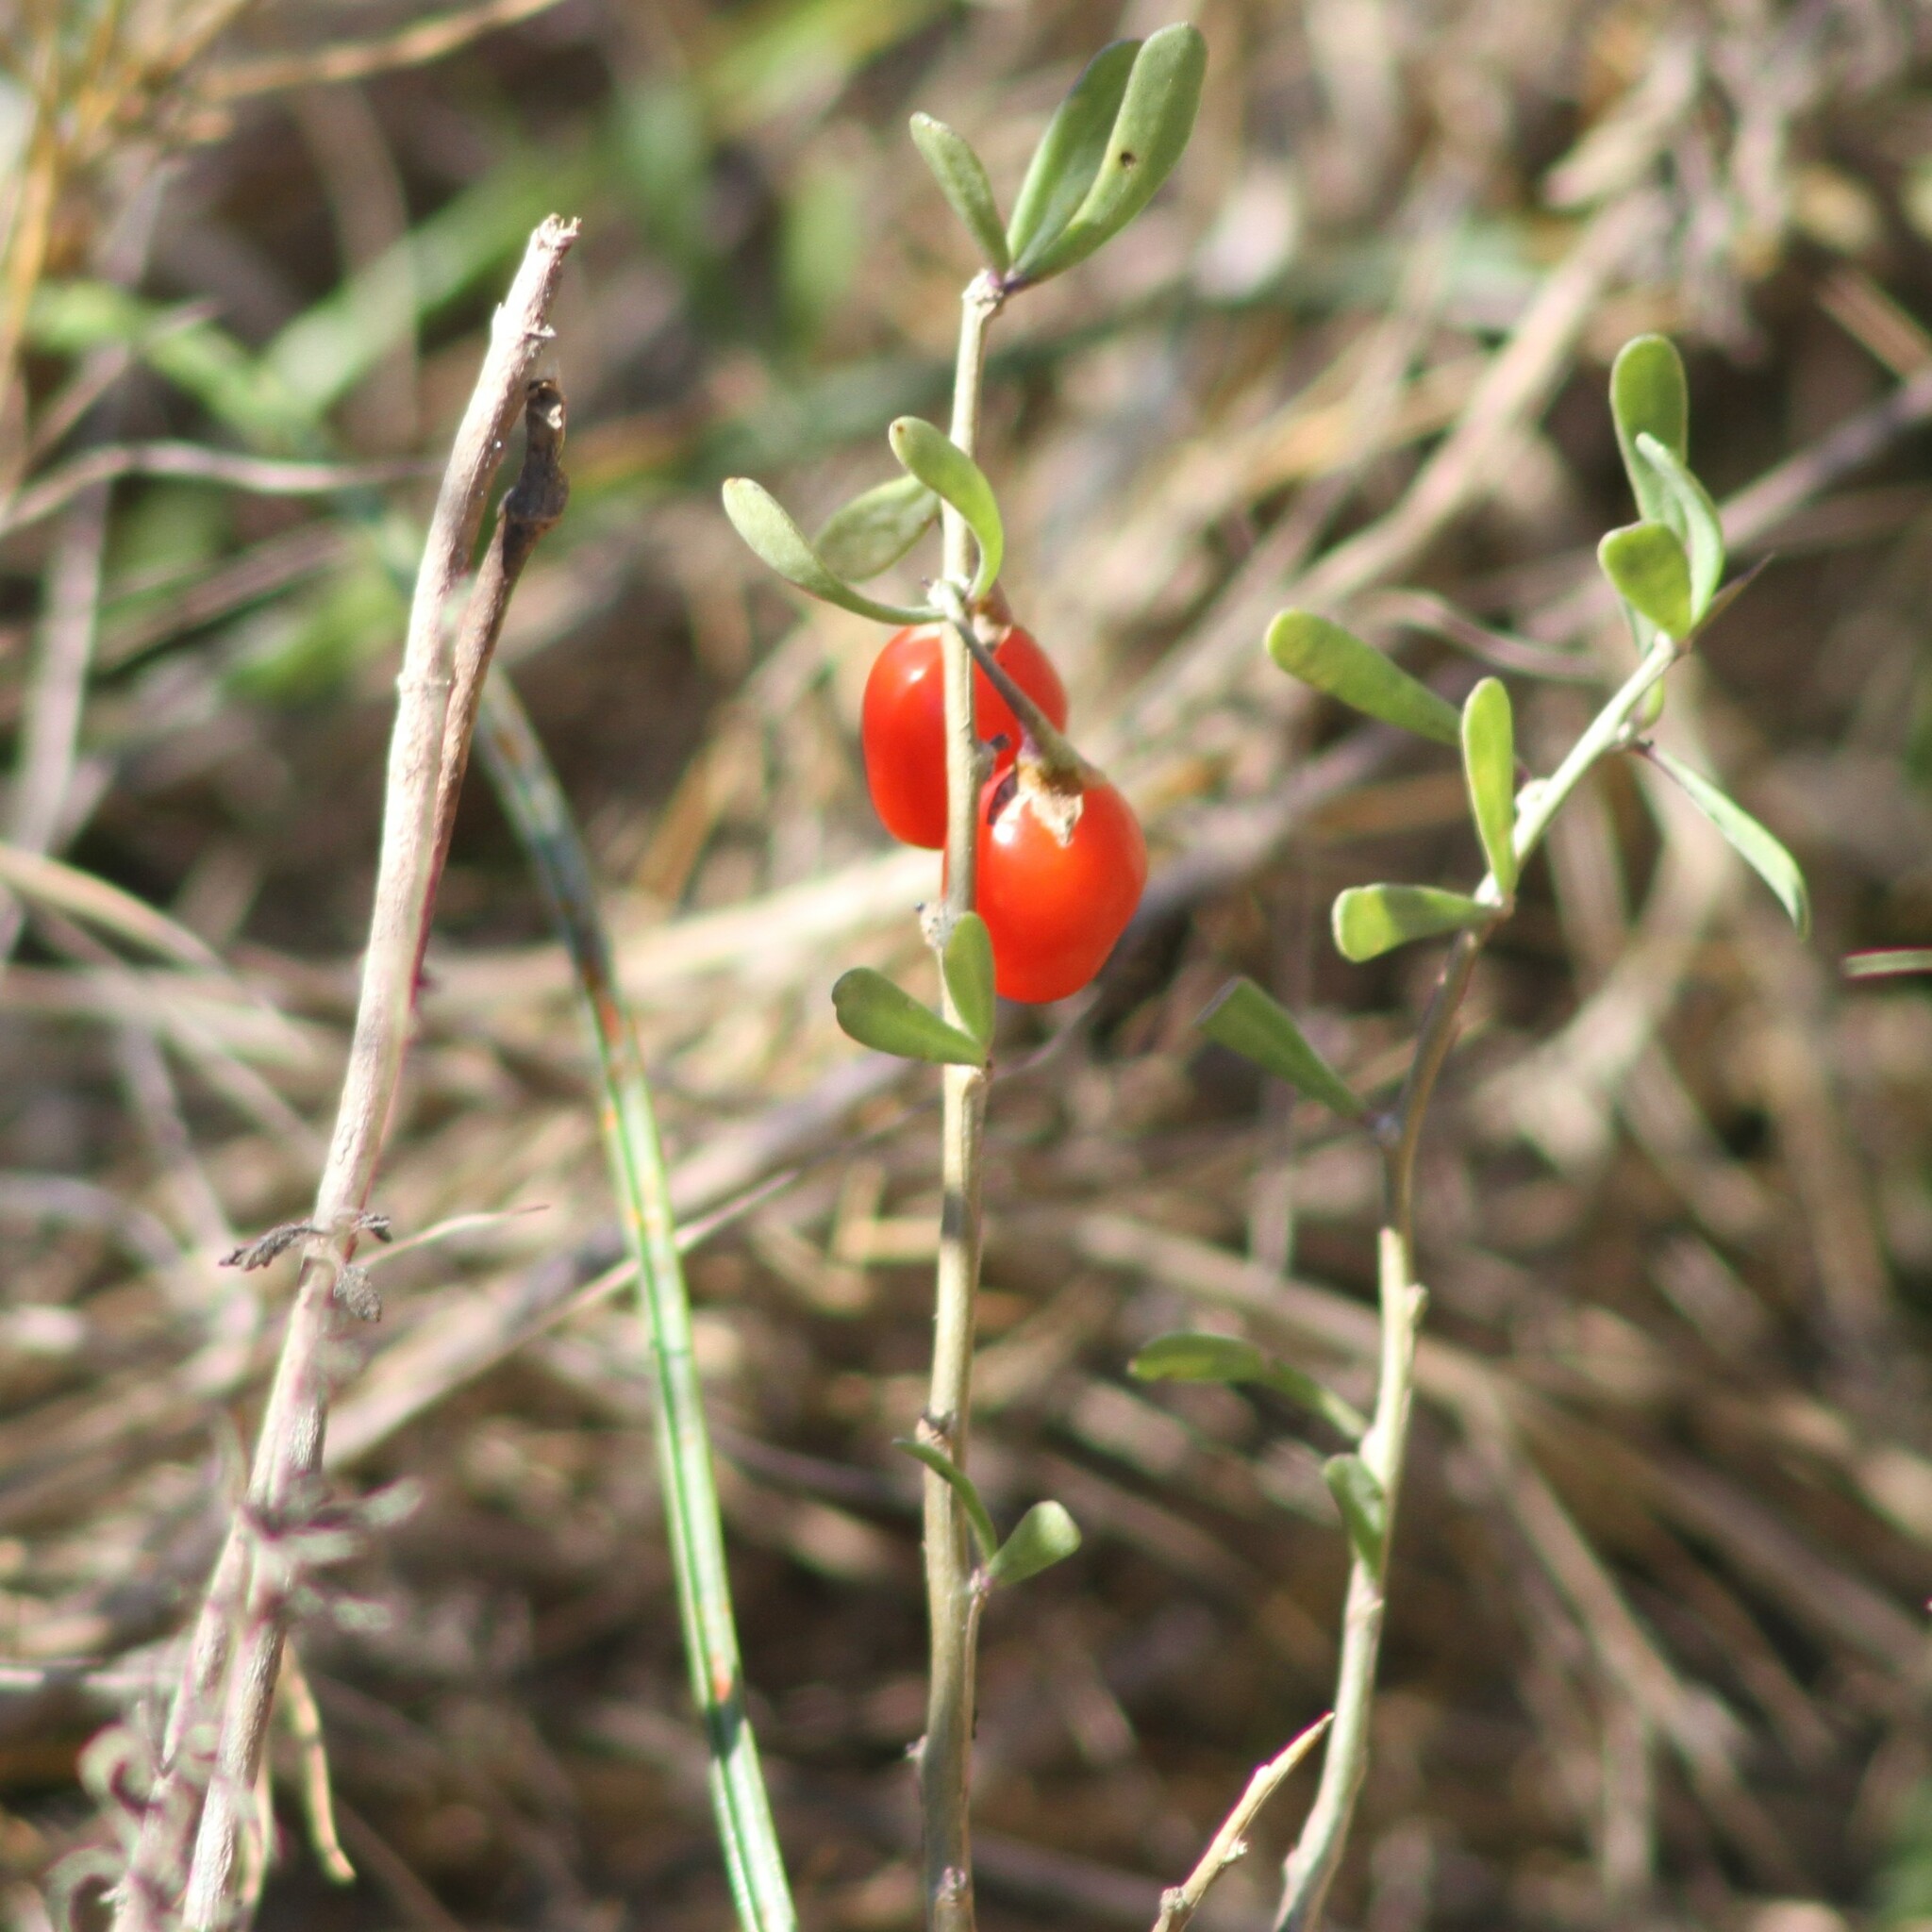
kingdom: Plantae
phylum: Tracheophyta
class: Magnoliopsida
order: Solanales
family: Solanaceae
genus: Lycium
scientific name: Lycium carolinianum
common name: Christmasberry
